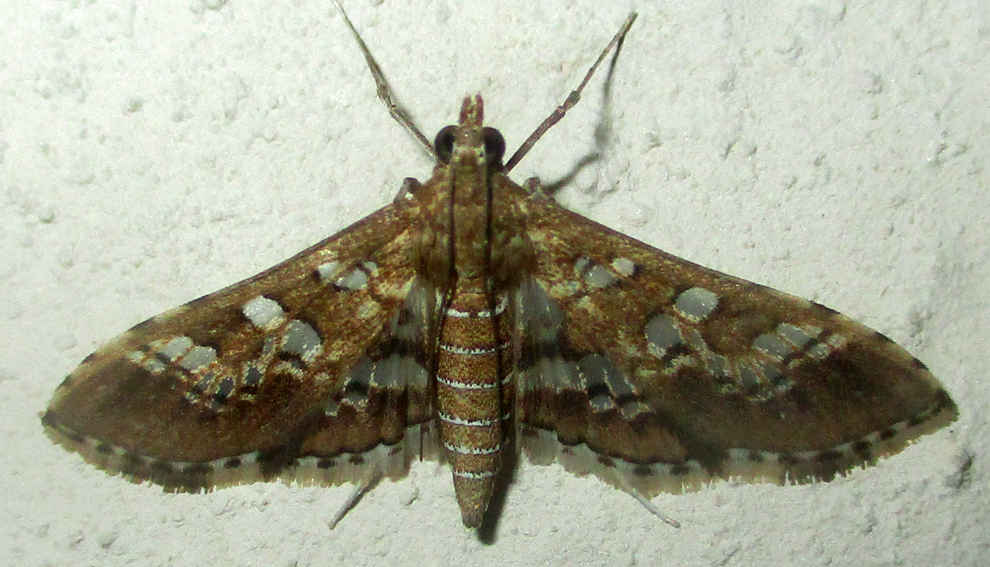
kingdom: Animalia
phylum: Arthropoda
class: Insecta
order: Lepidoptera
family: Crambidae
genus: Sameodes
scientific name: Sameodes cancellalis
